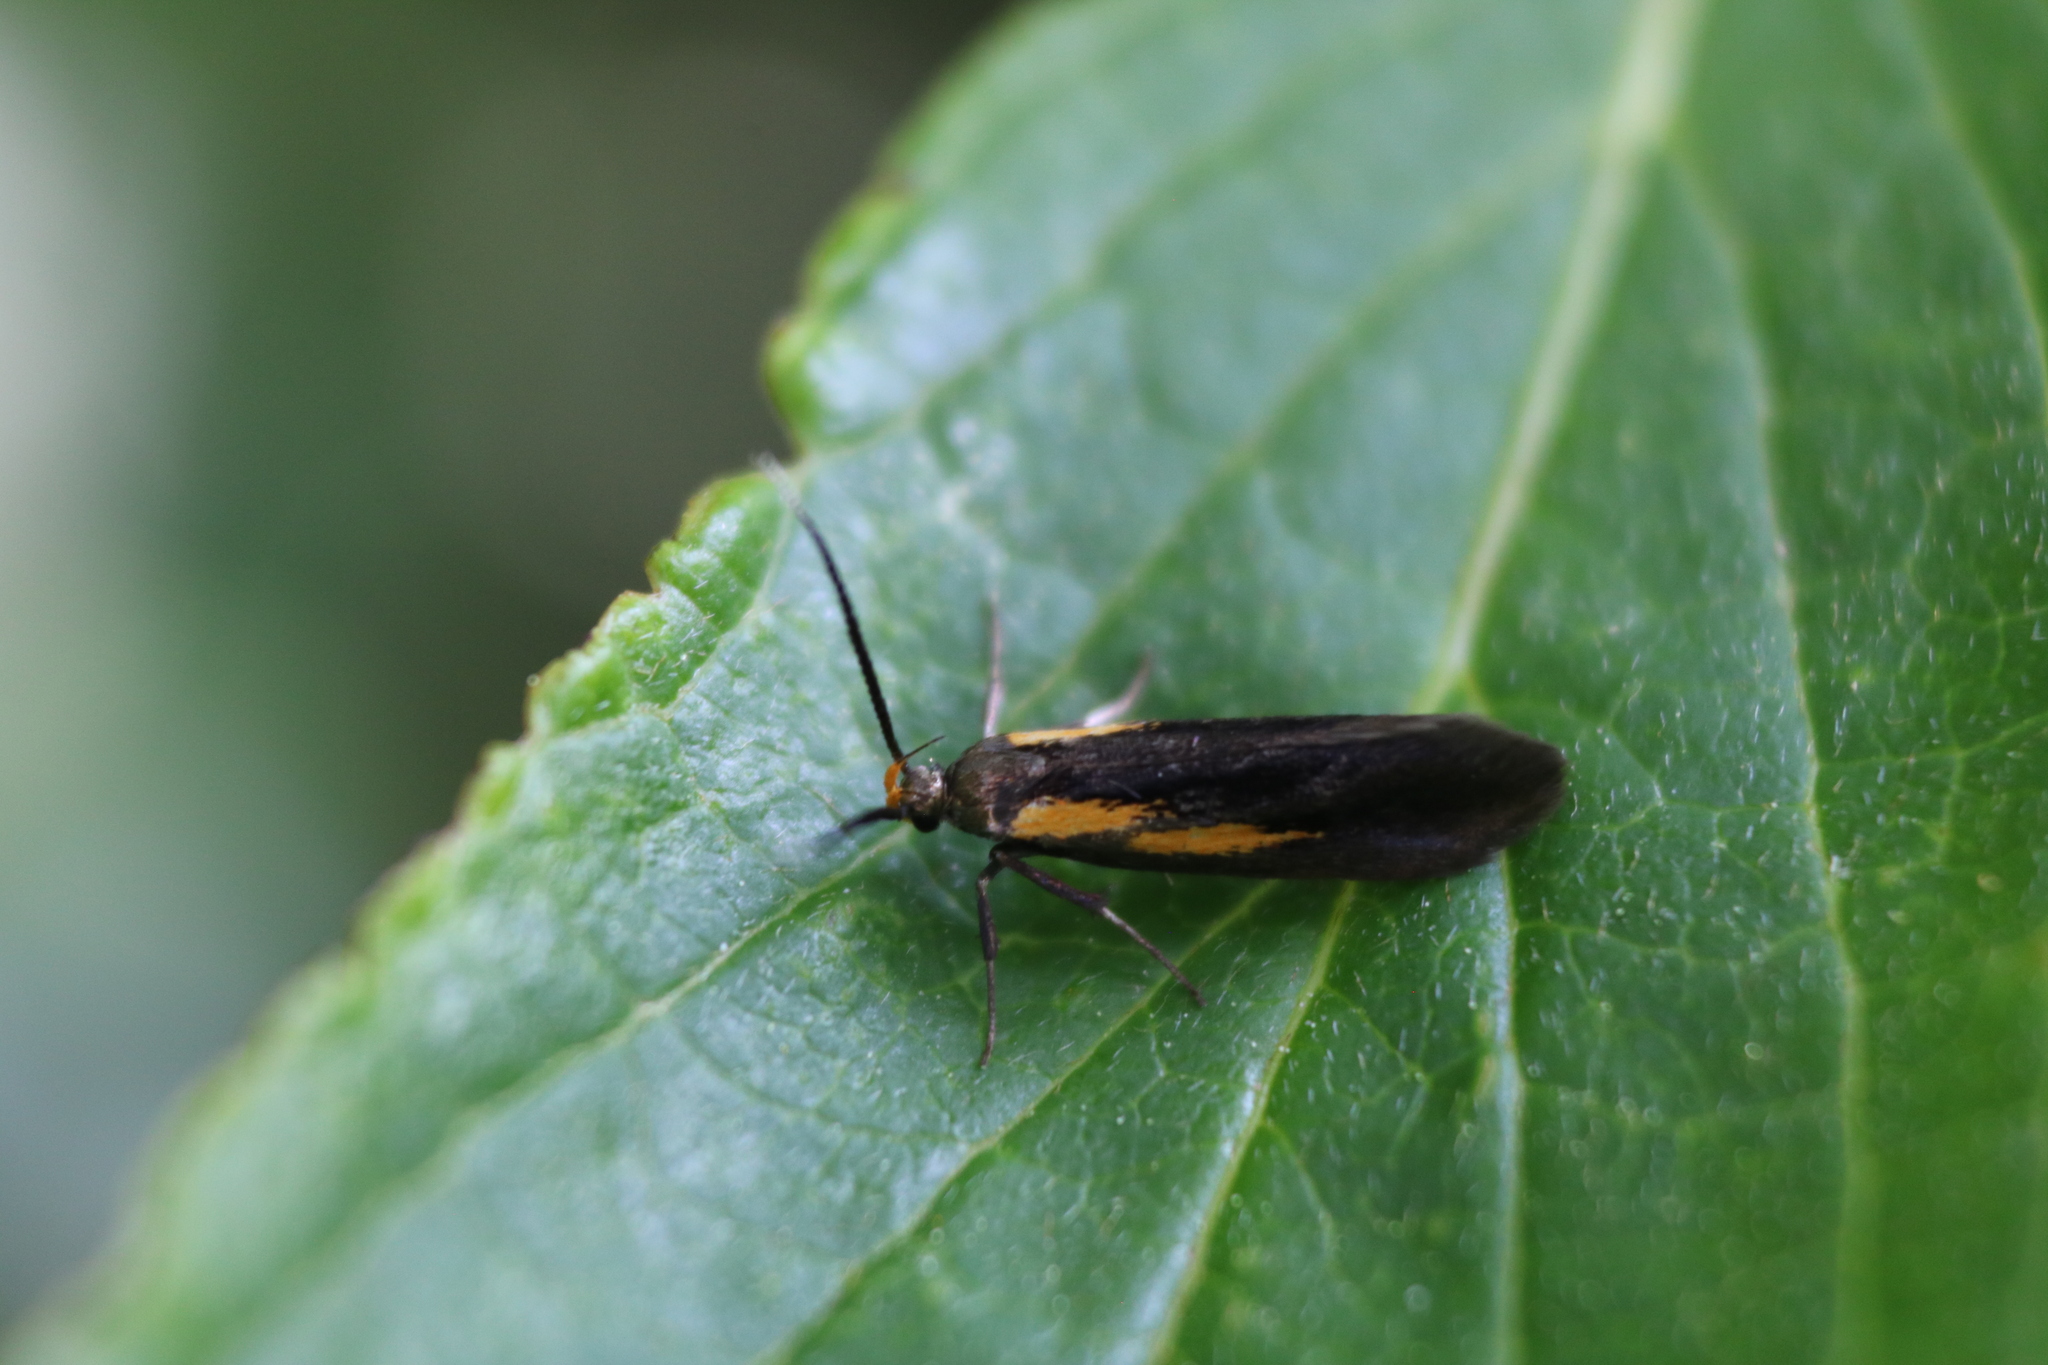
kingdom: Animalia
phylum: Arthropoda
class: Insecta
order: Lepidoptera
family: Oecophoridae
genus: Mathildana
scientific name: Mathildana newmanella
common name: Newman's mathildana moth
